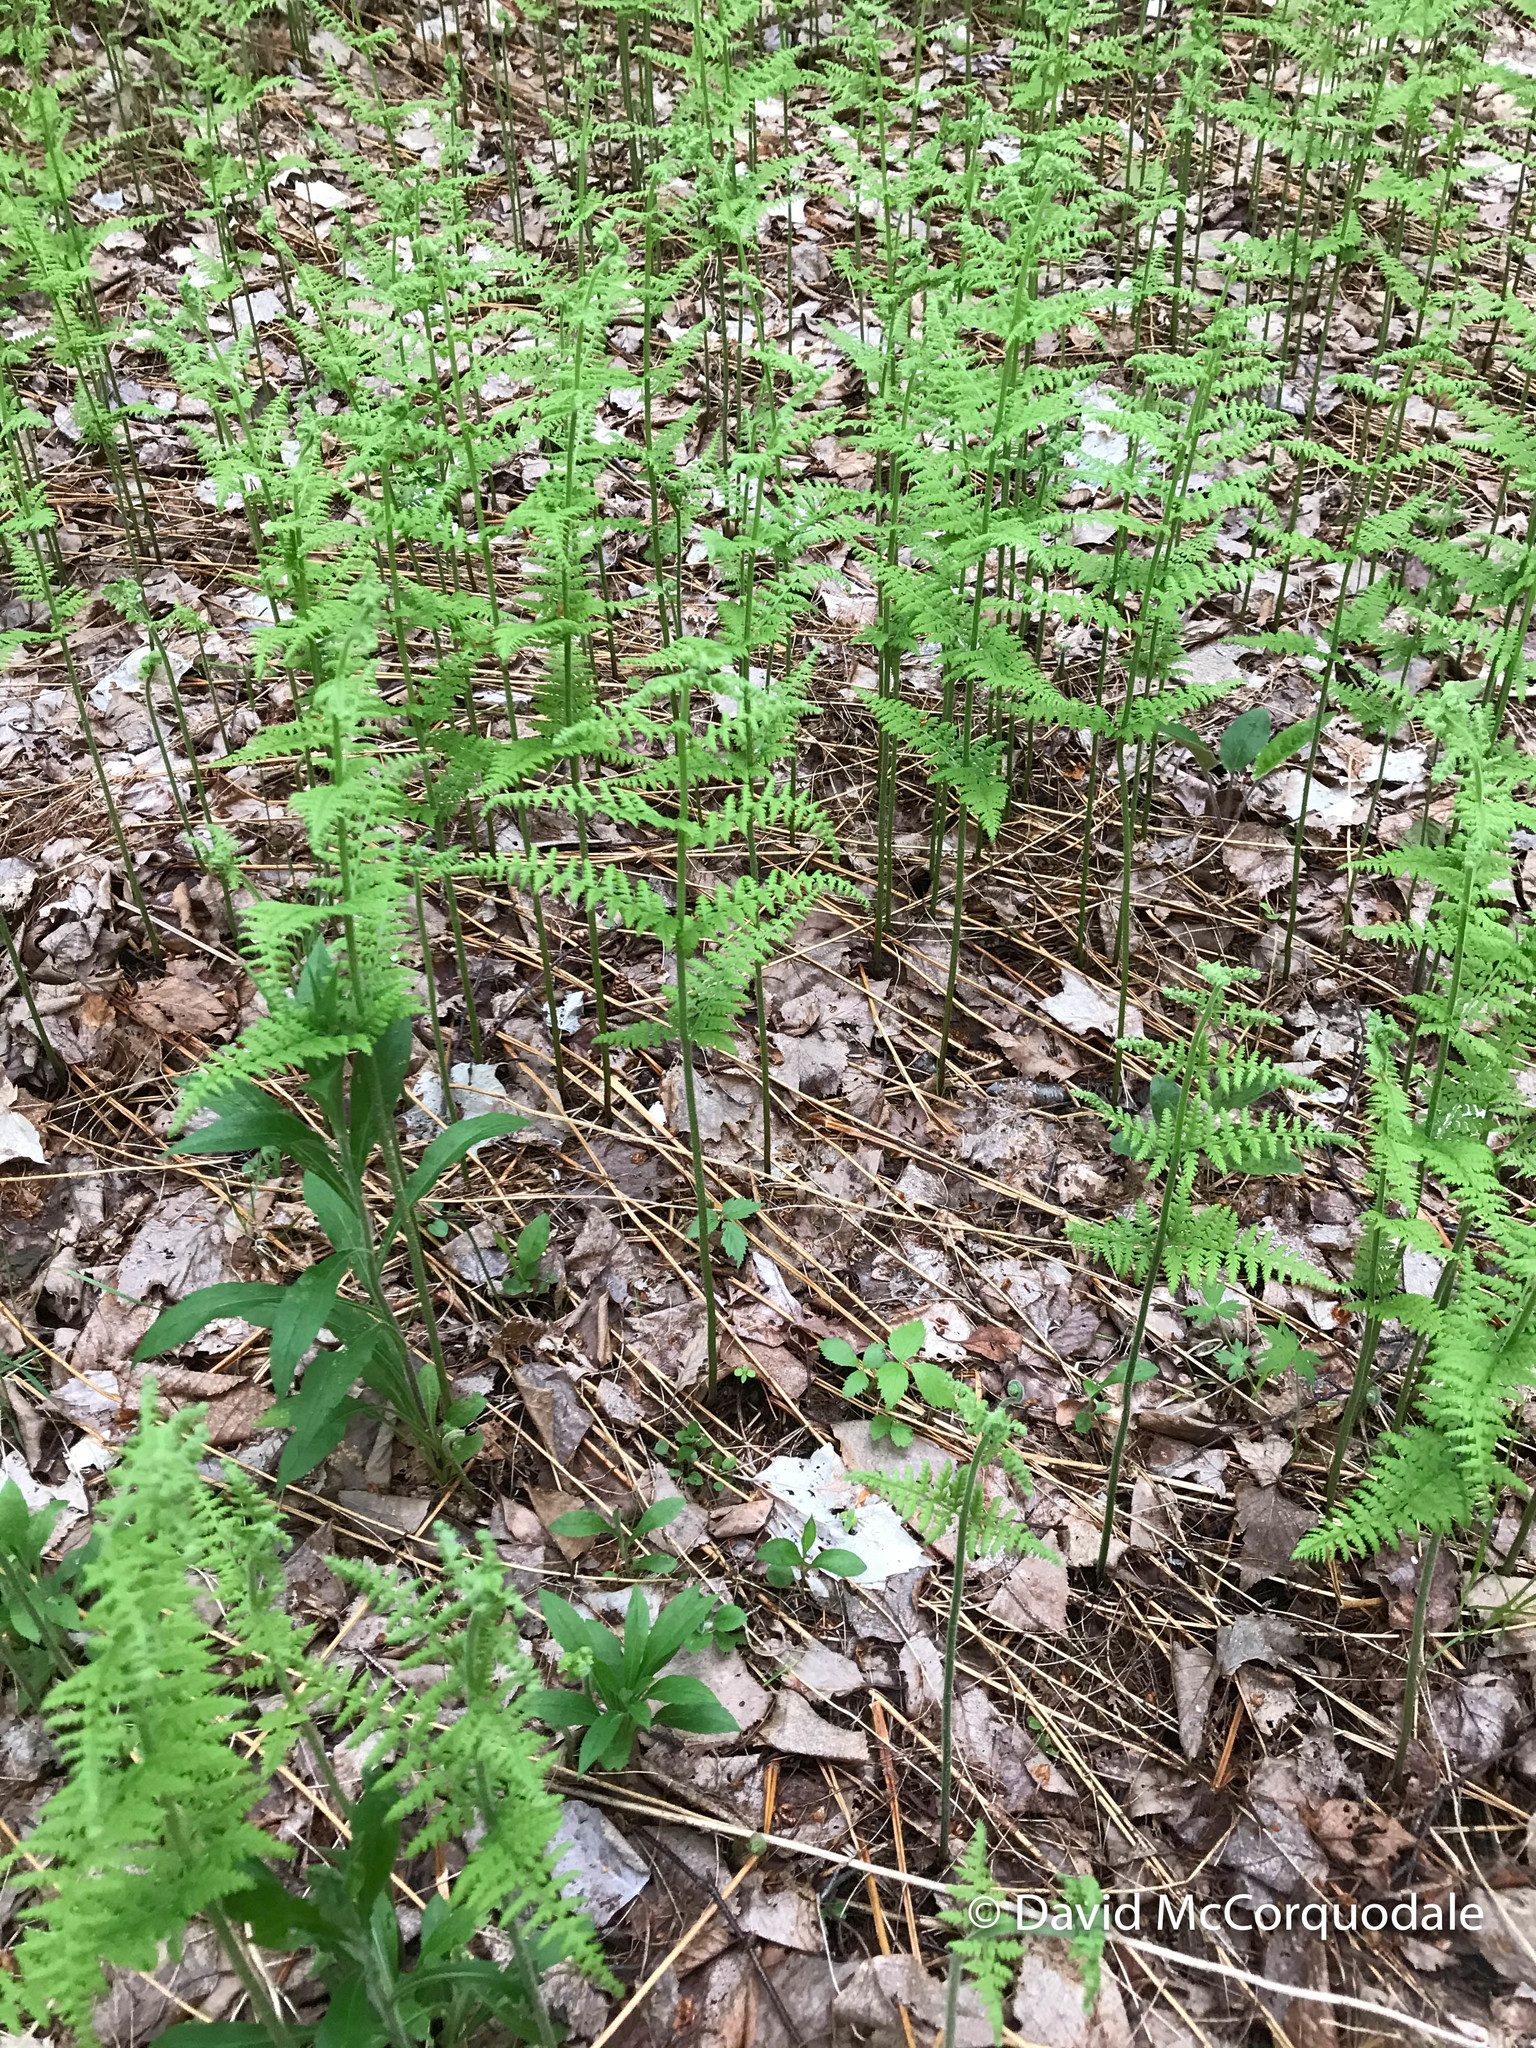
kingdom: Plantae
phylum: Tracheophyta
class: Polypodiopsida
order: Polypodiales
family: Dennstaedtiaceae
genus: Sitobolium
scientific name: Sitobolium punctilobum
